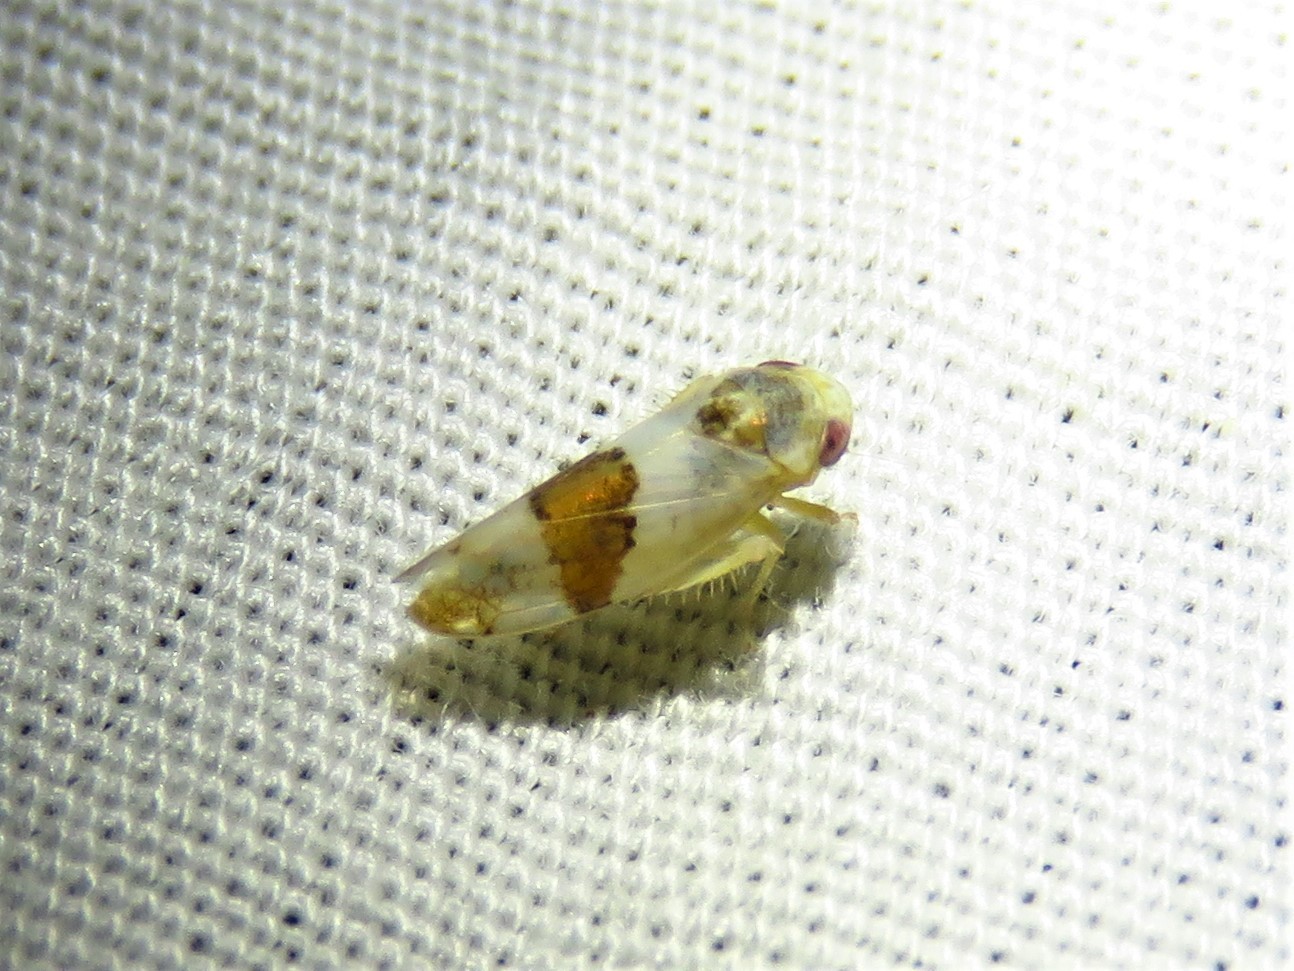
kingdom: Animalia
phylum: Arthropoda
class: Insecta
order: Hemiptera
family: Cicadellidae
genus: Norvellina
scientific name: Norvellina seminuda
